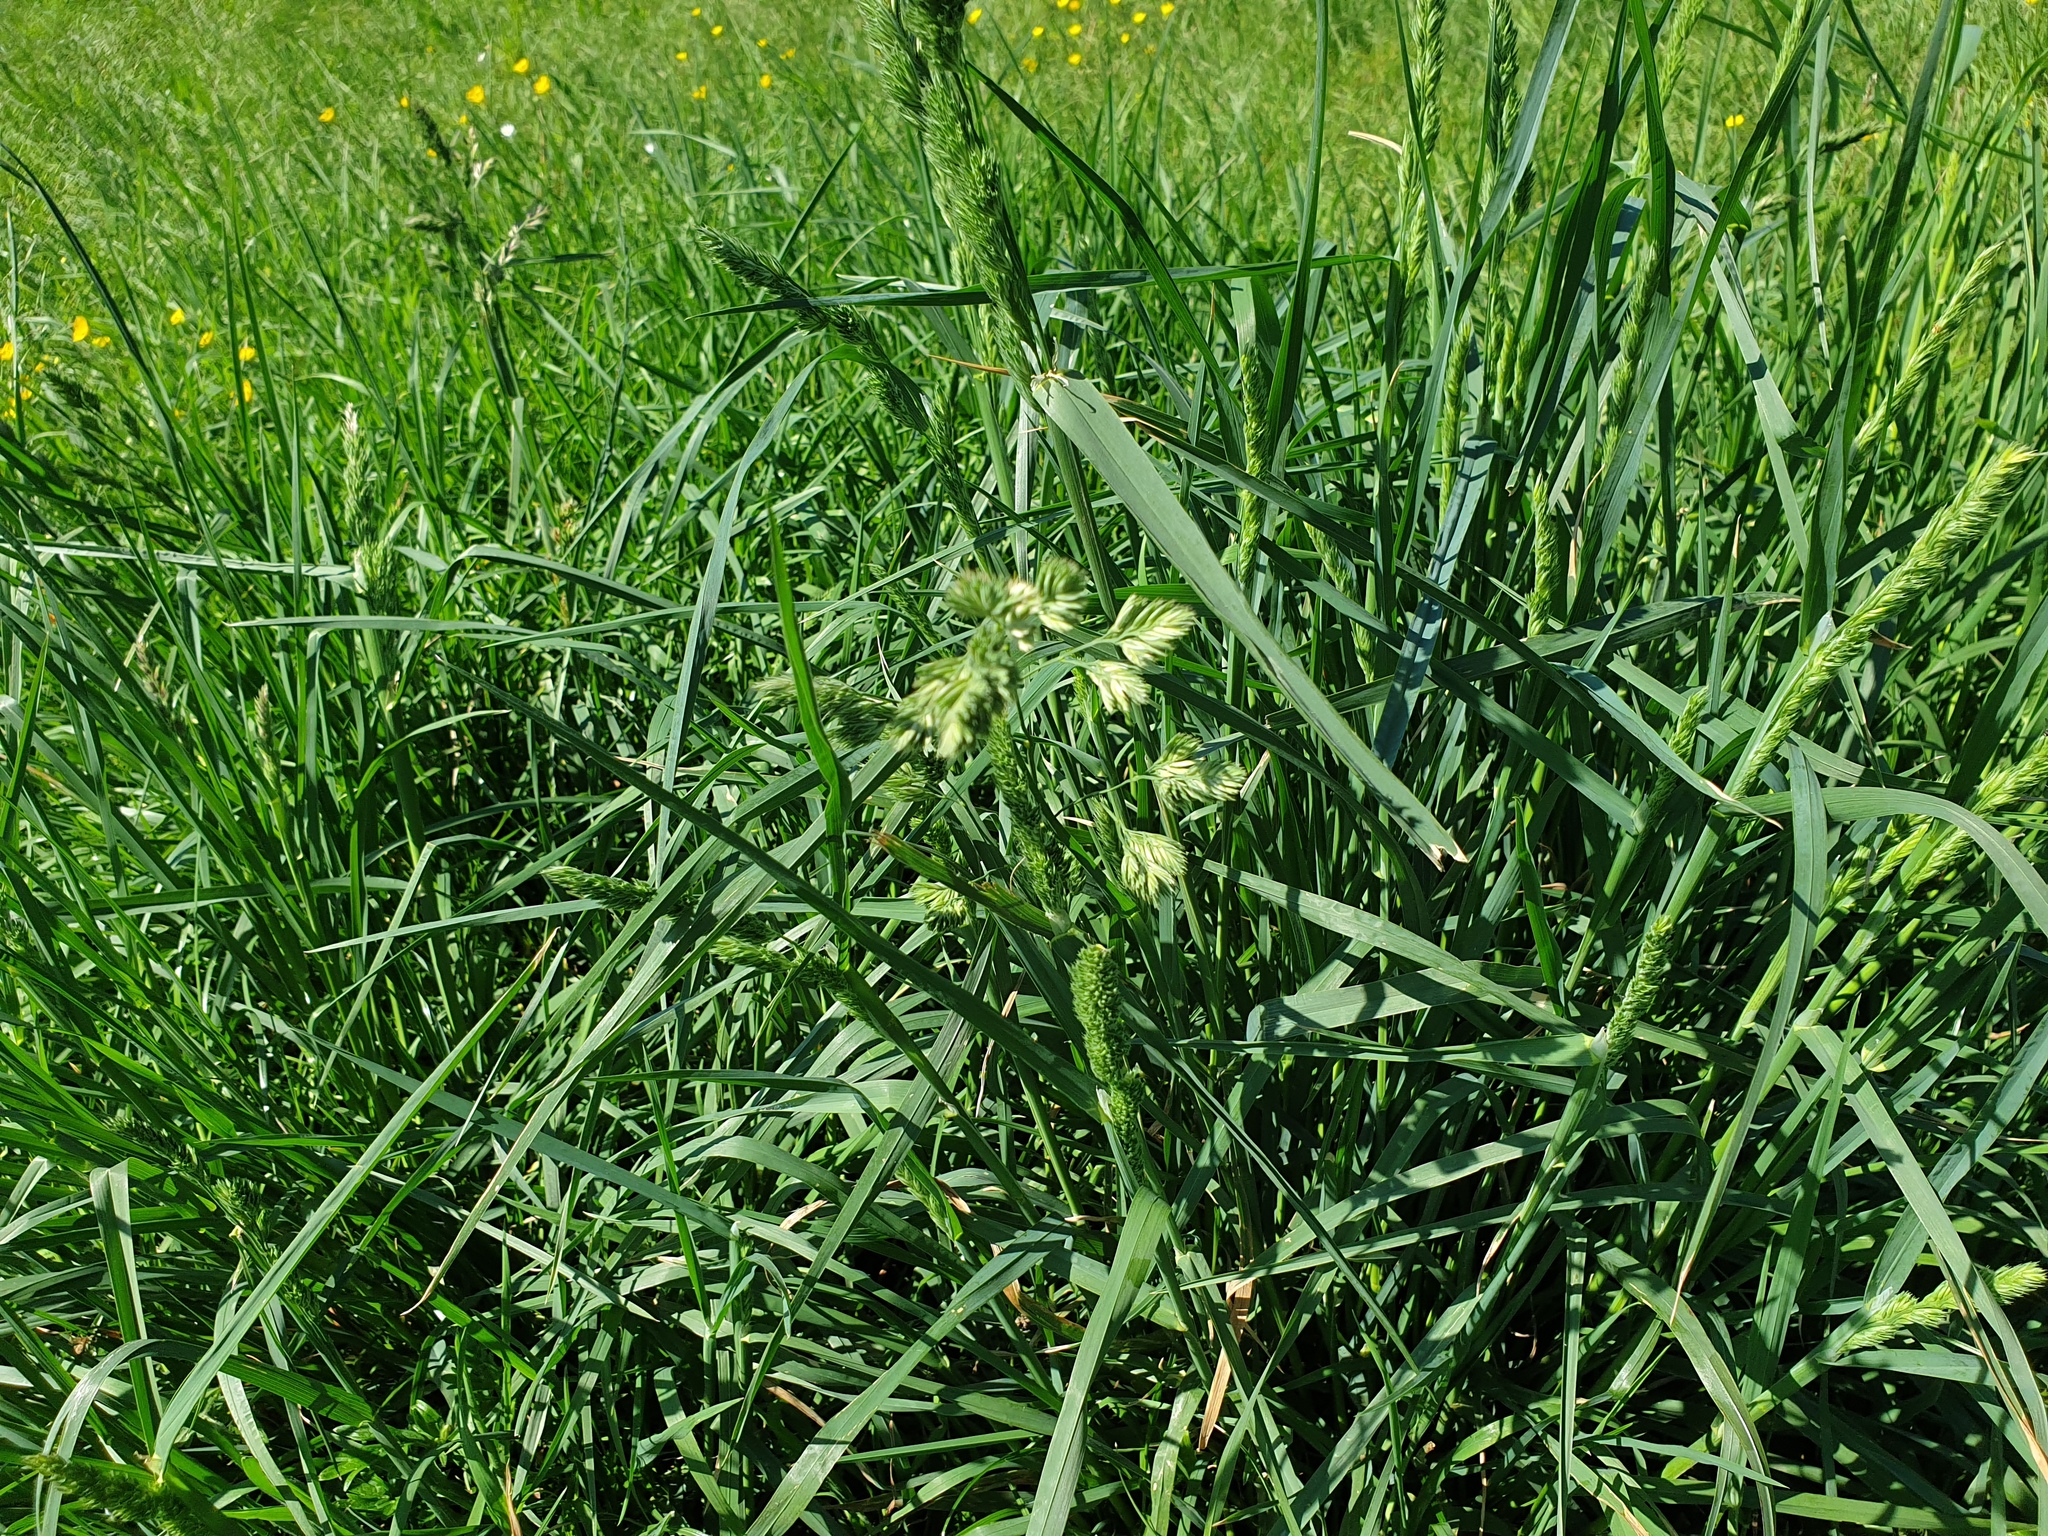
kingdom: Plantae
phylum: Tracheophyta
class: Liliopsida
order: Poales
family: Poaceae
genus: Dactylis
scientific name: Dactylis glomerata
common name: Orchardgrass
